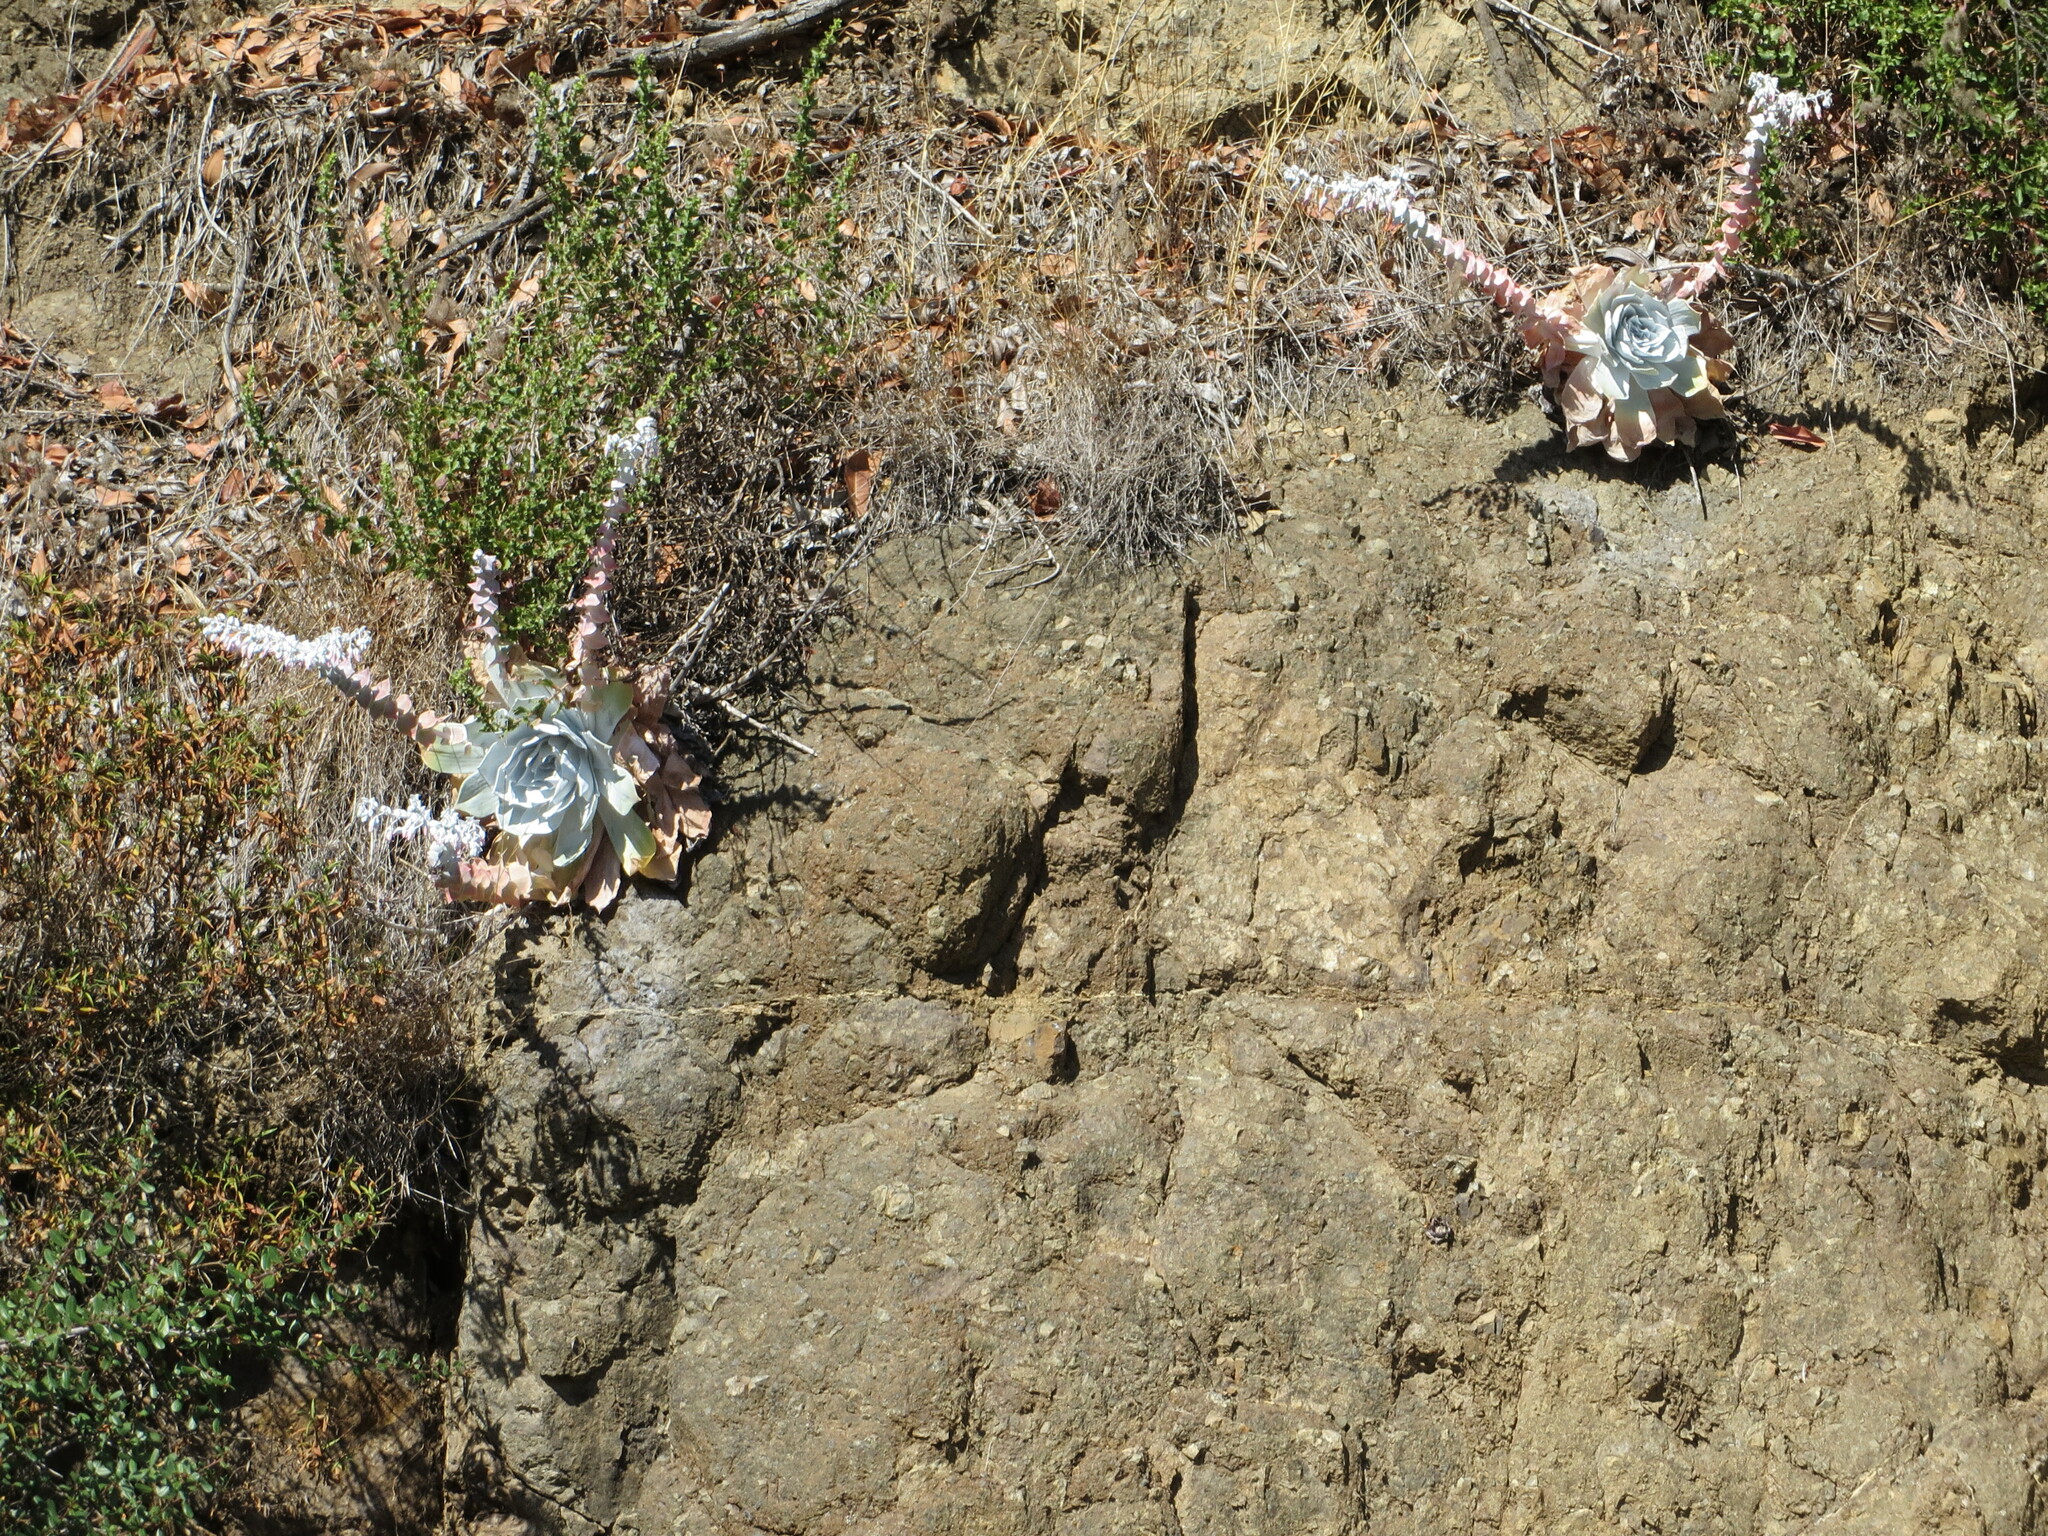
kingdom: Plantae
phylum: Tracheophyta
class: Magnoliopsida
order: Saxifragales
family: Crassulaceae
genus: Dudleya
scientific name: Dudleya pulverulenta
